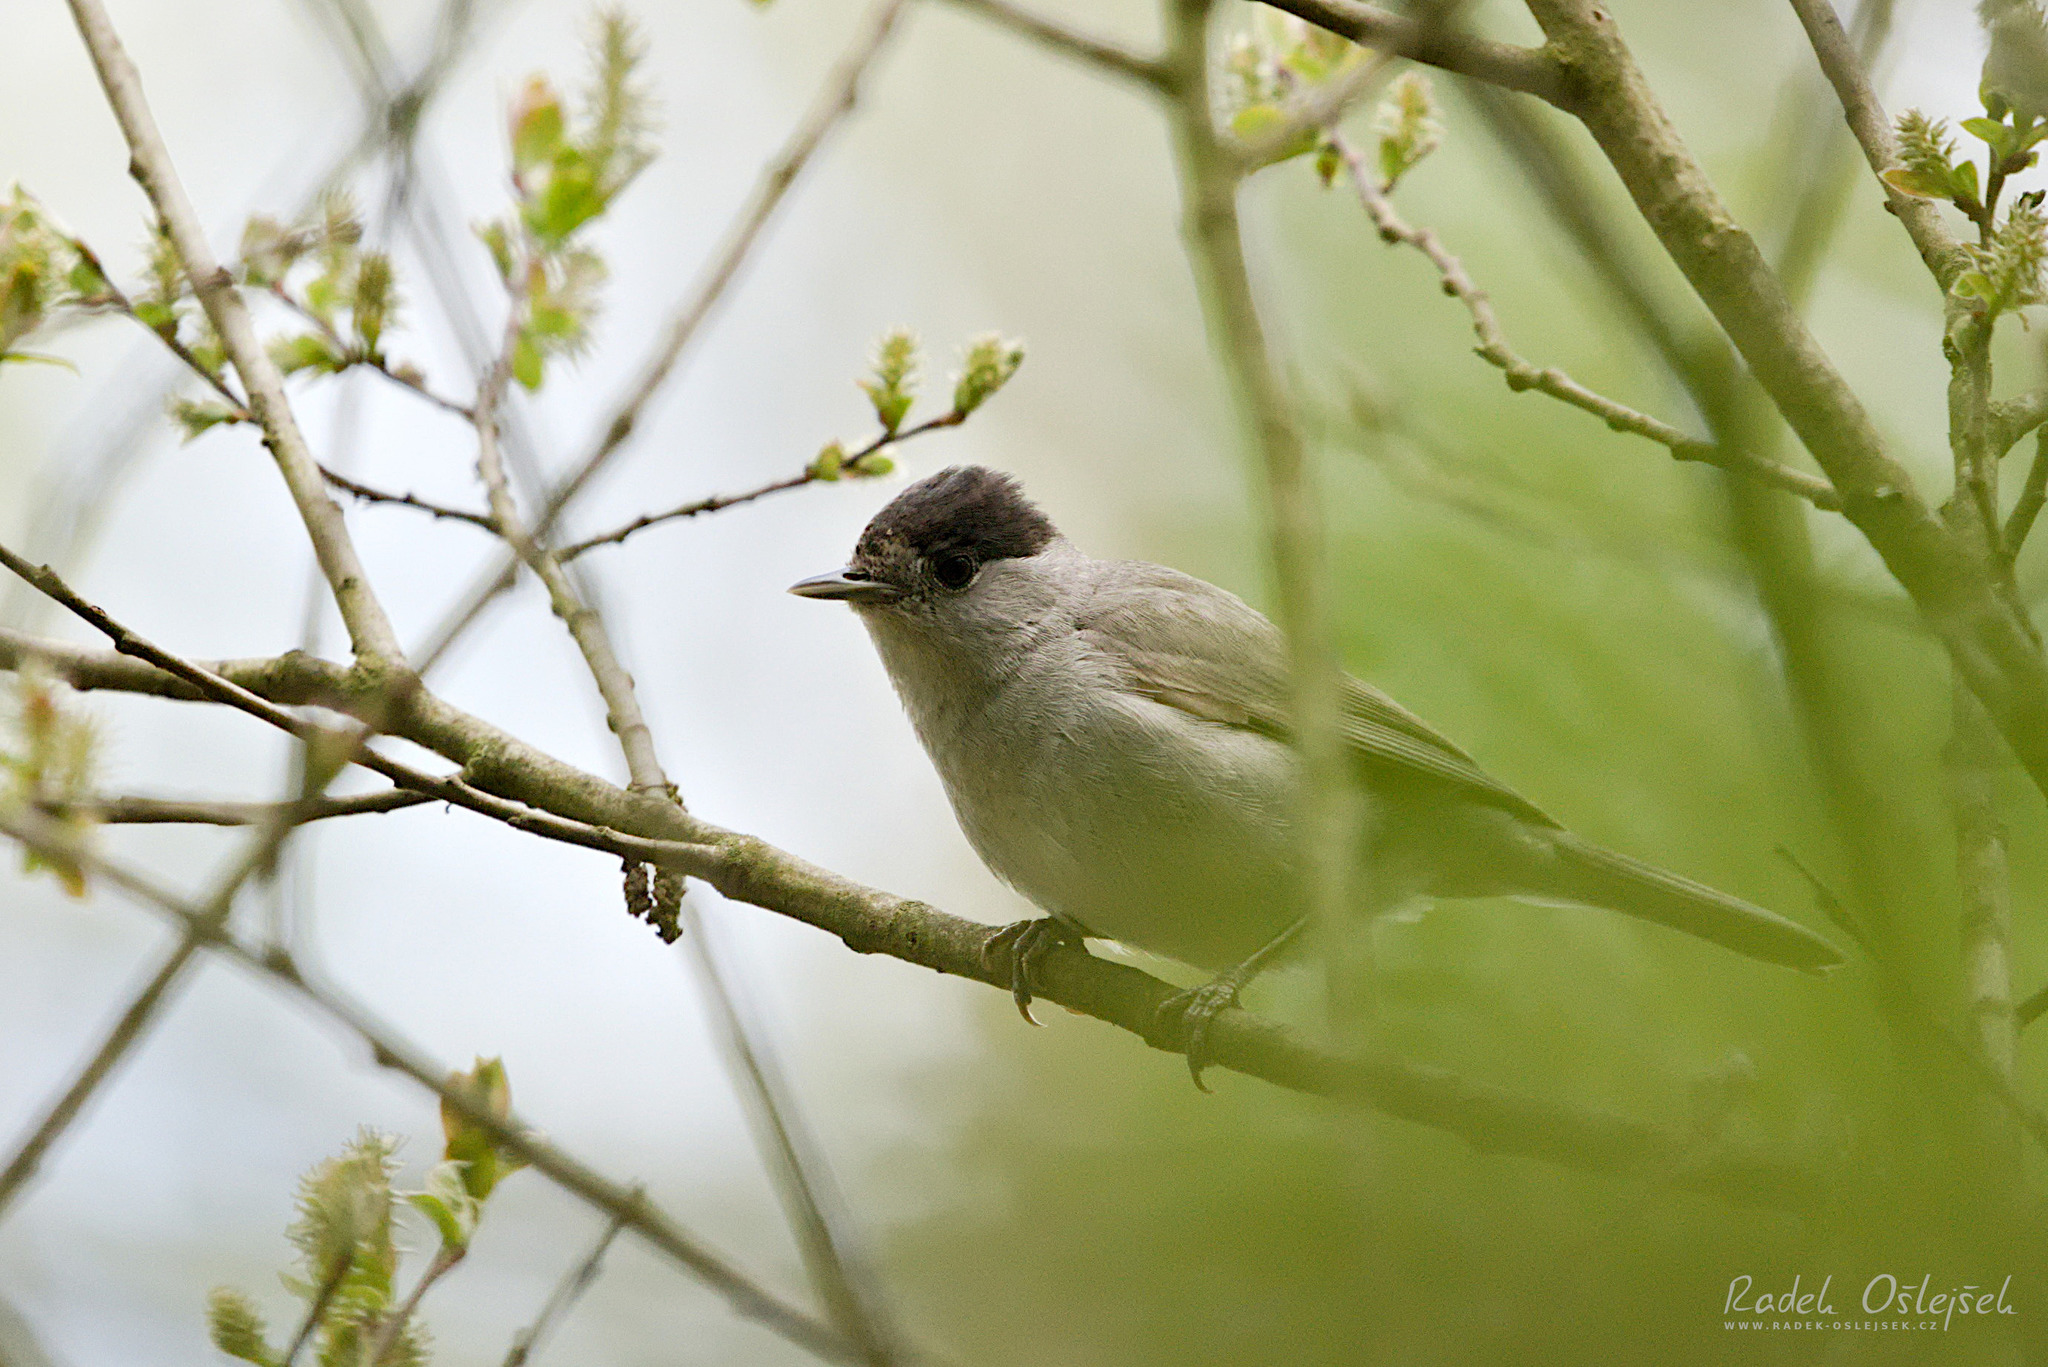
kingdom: Animalia
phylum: Chordata
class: Aves
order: Passeriformes
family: Sylviidae
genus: Sylvia
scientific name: Sylvia atricapilla
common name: Eurasian blackcap
